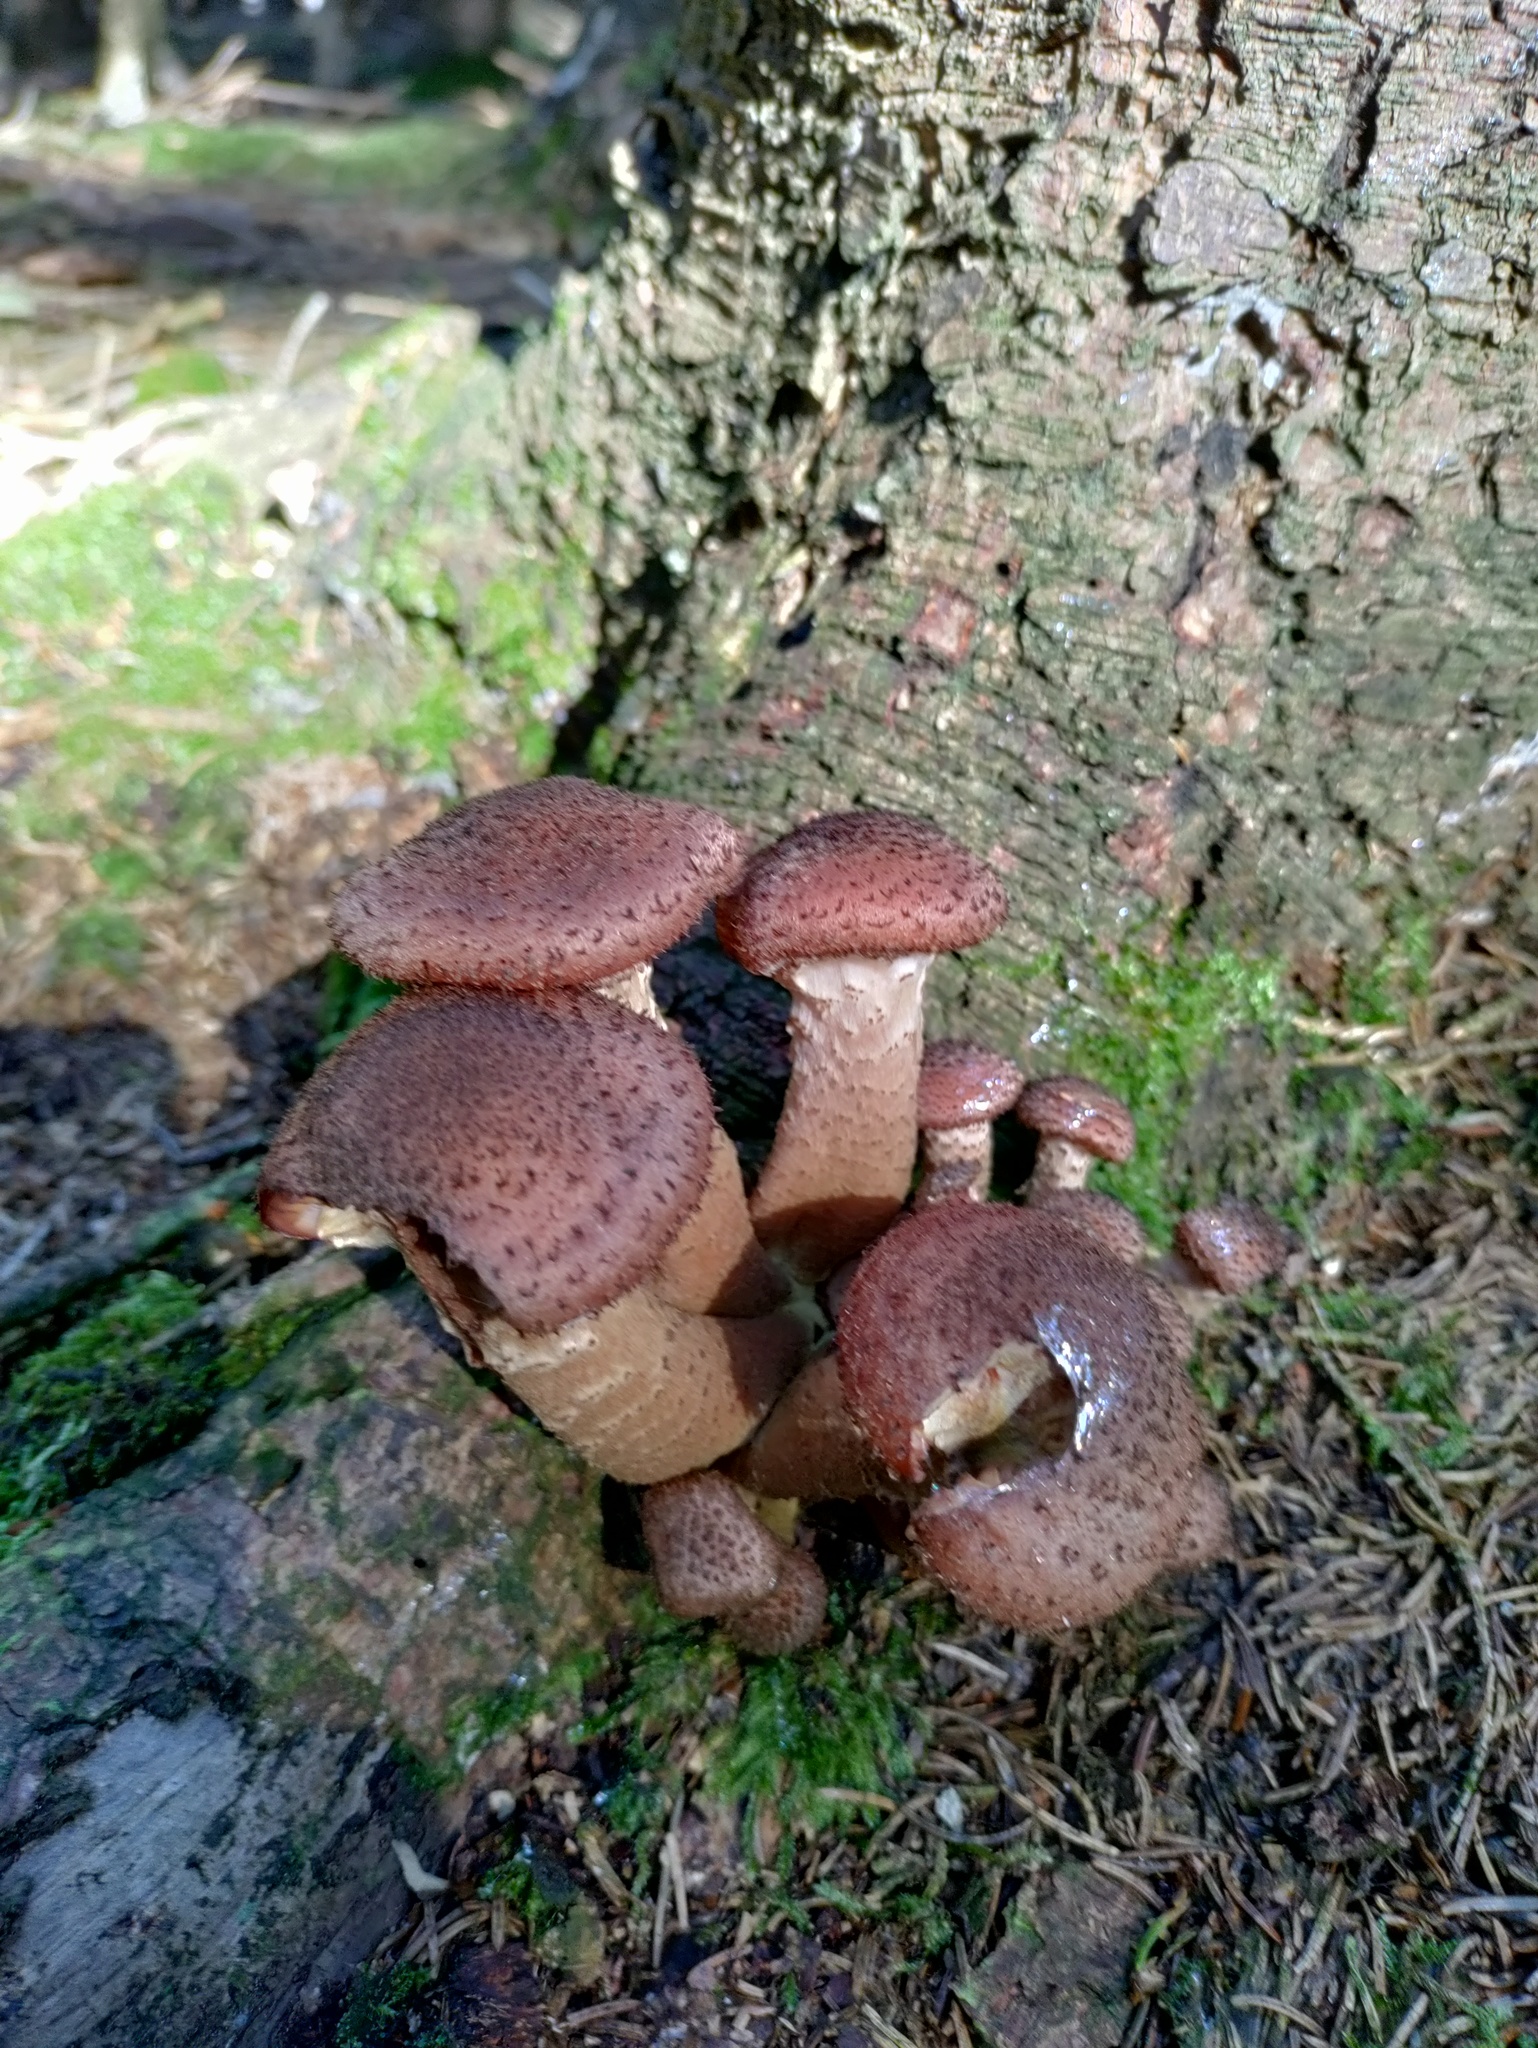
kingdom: Fungi
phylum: Basidiomycota
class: Agaricomycetes
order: Agaricales
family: Physalacriaceae
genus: Armillaria
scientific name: Armillaria ostoyae
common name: Dark honey fungus
